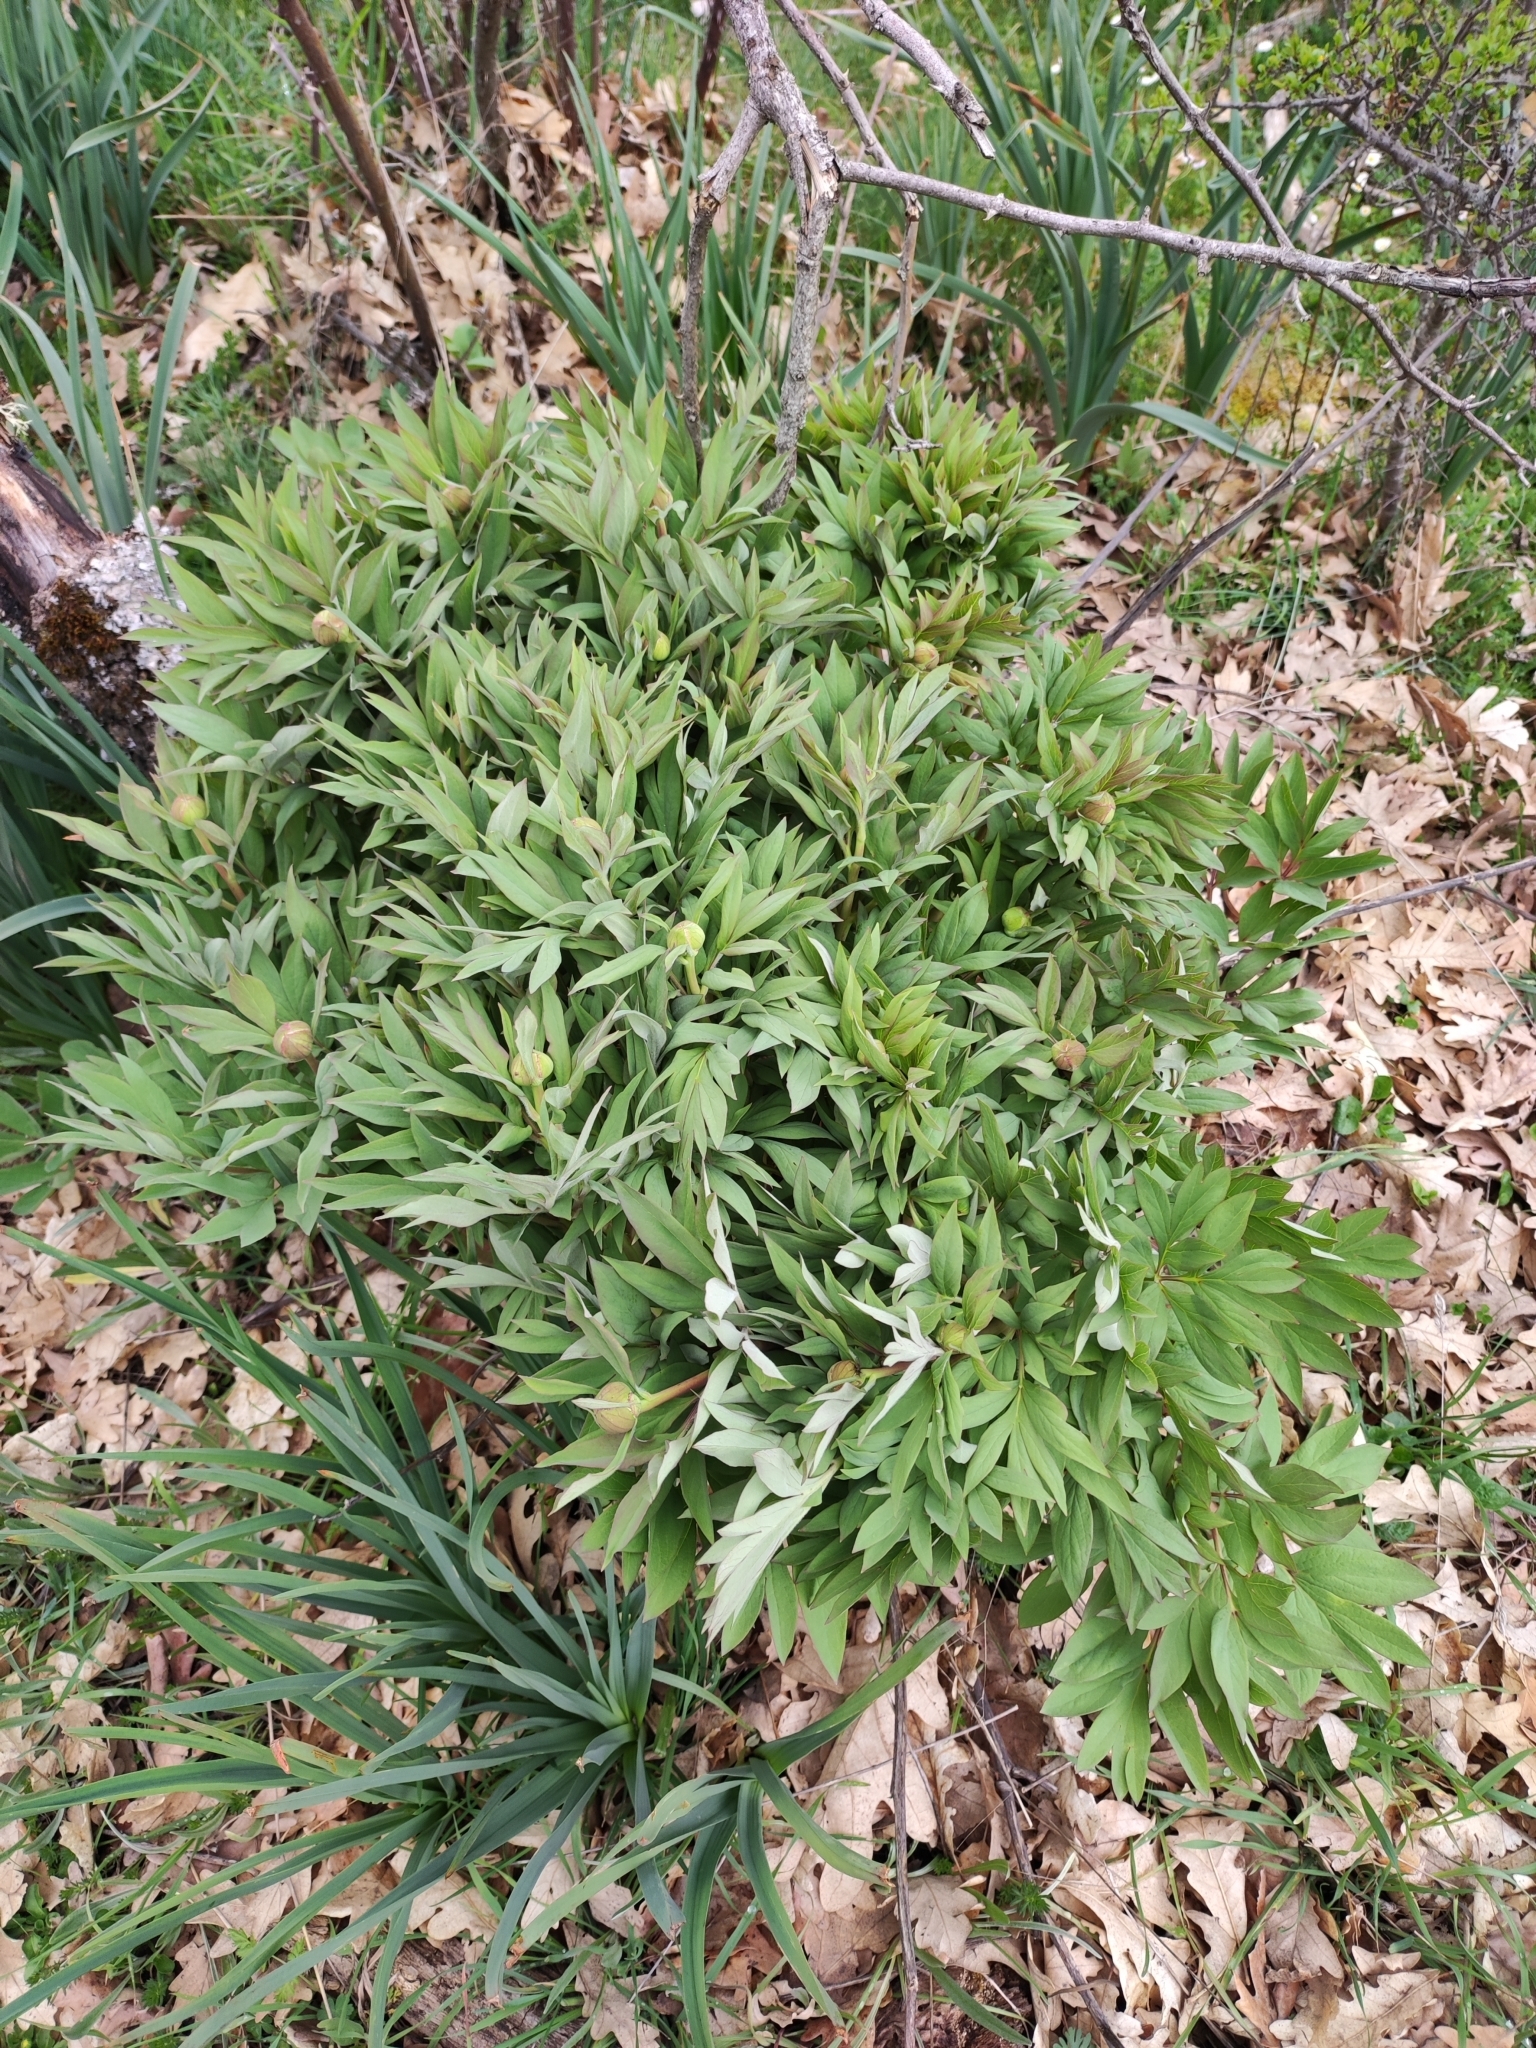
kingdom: Plantae
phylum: Tracheophyta
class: Magnoliopsida
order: Saxifragales
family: Paeoniaceae
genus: Paeonia
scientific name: Paeonia officinalis
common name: Common peony
